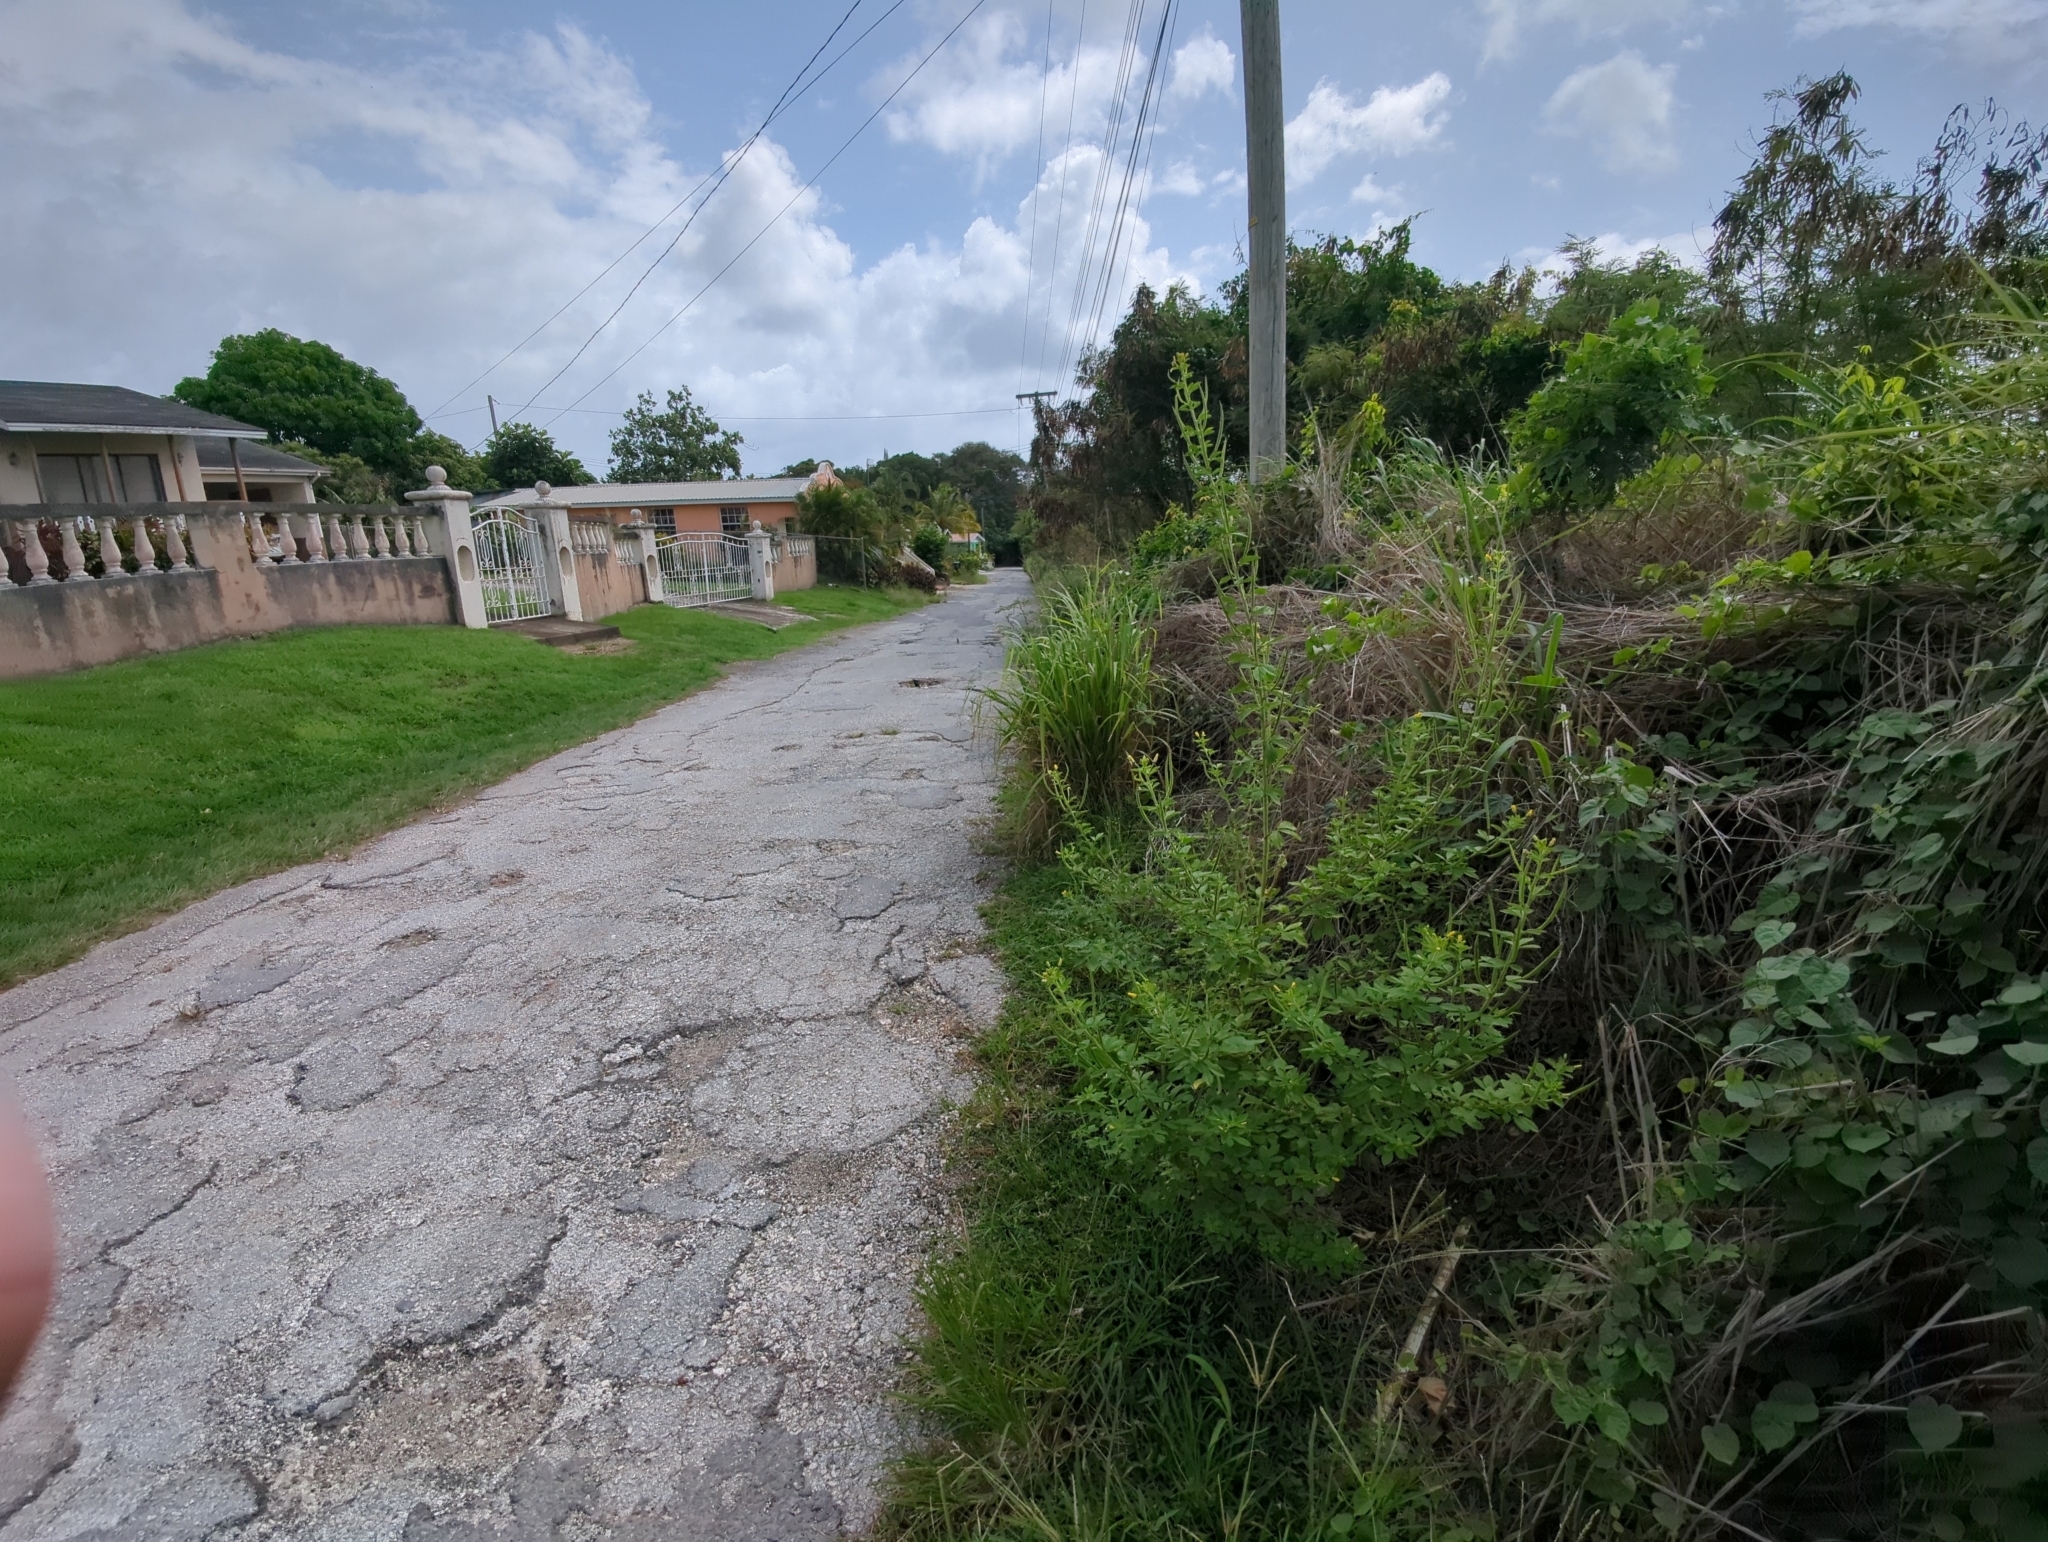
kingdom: Plantae
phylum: Tracheophyta
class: Magnoliopsida
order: Brassicales
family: Cleomaceae
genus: Arivela
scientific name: Arivela viscosa
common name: Asian spiderflower
